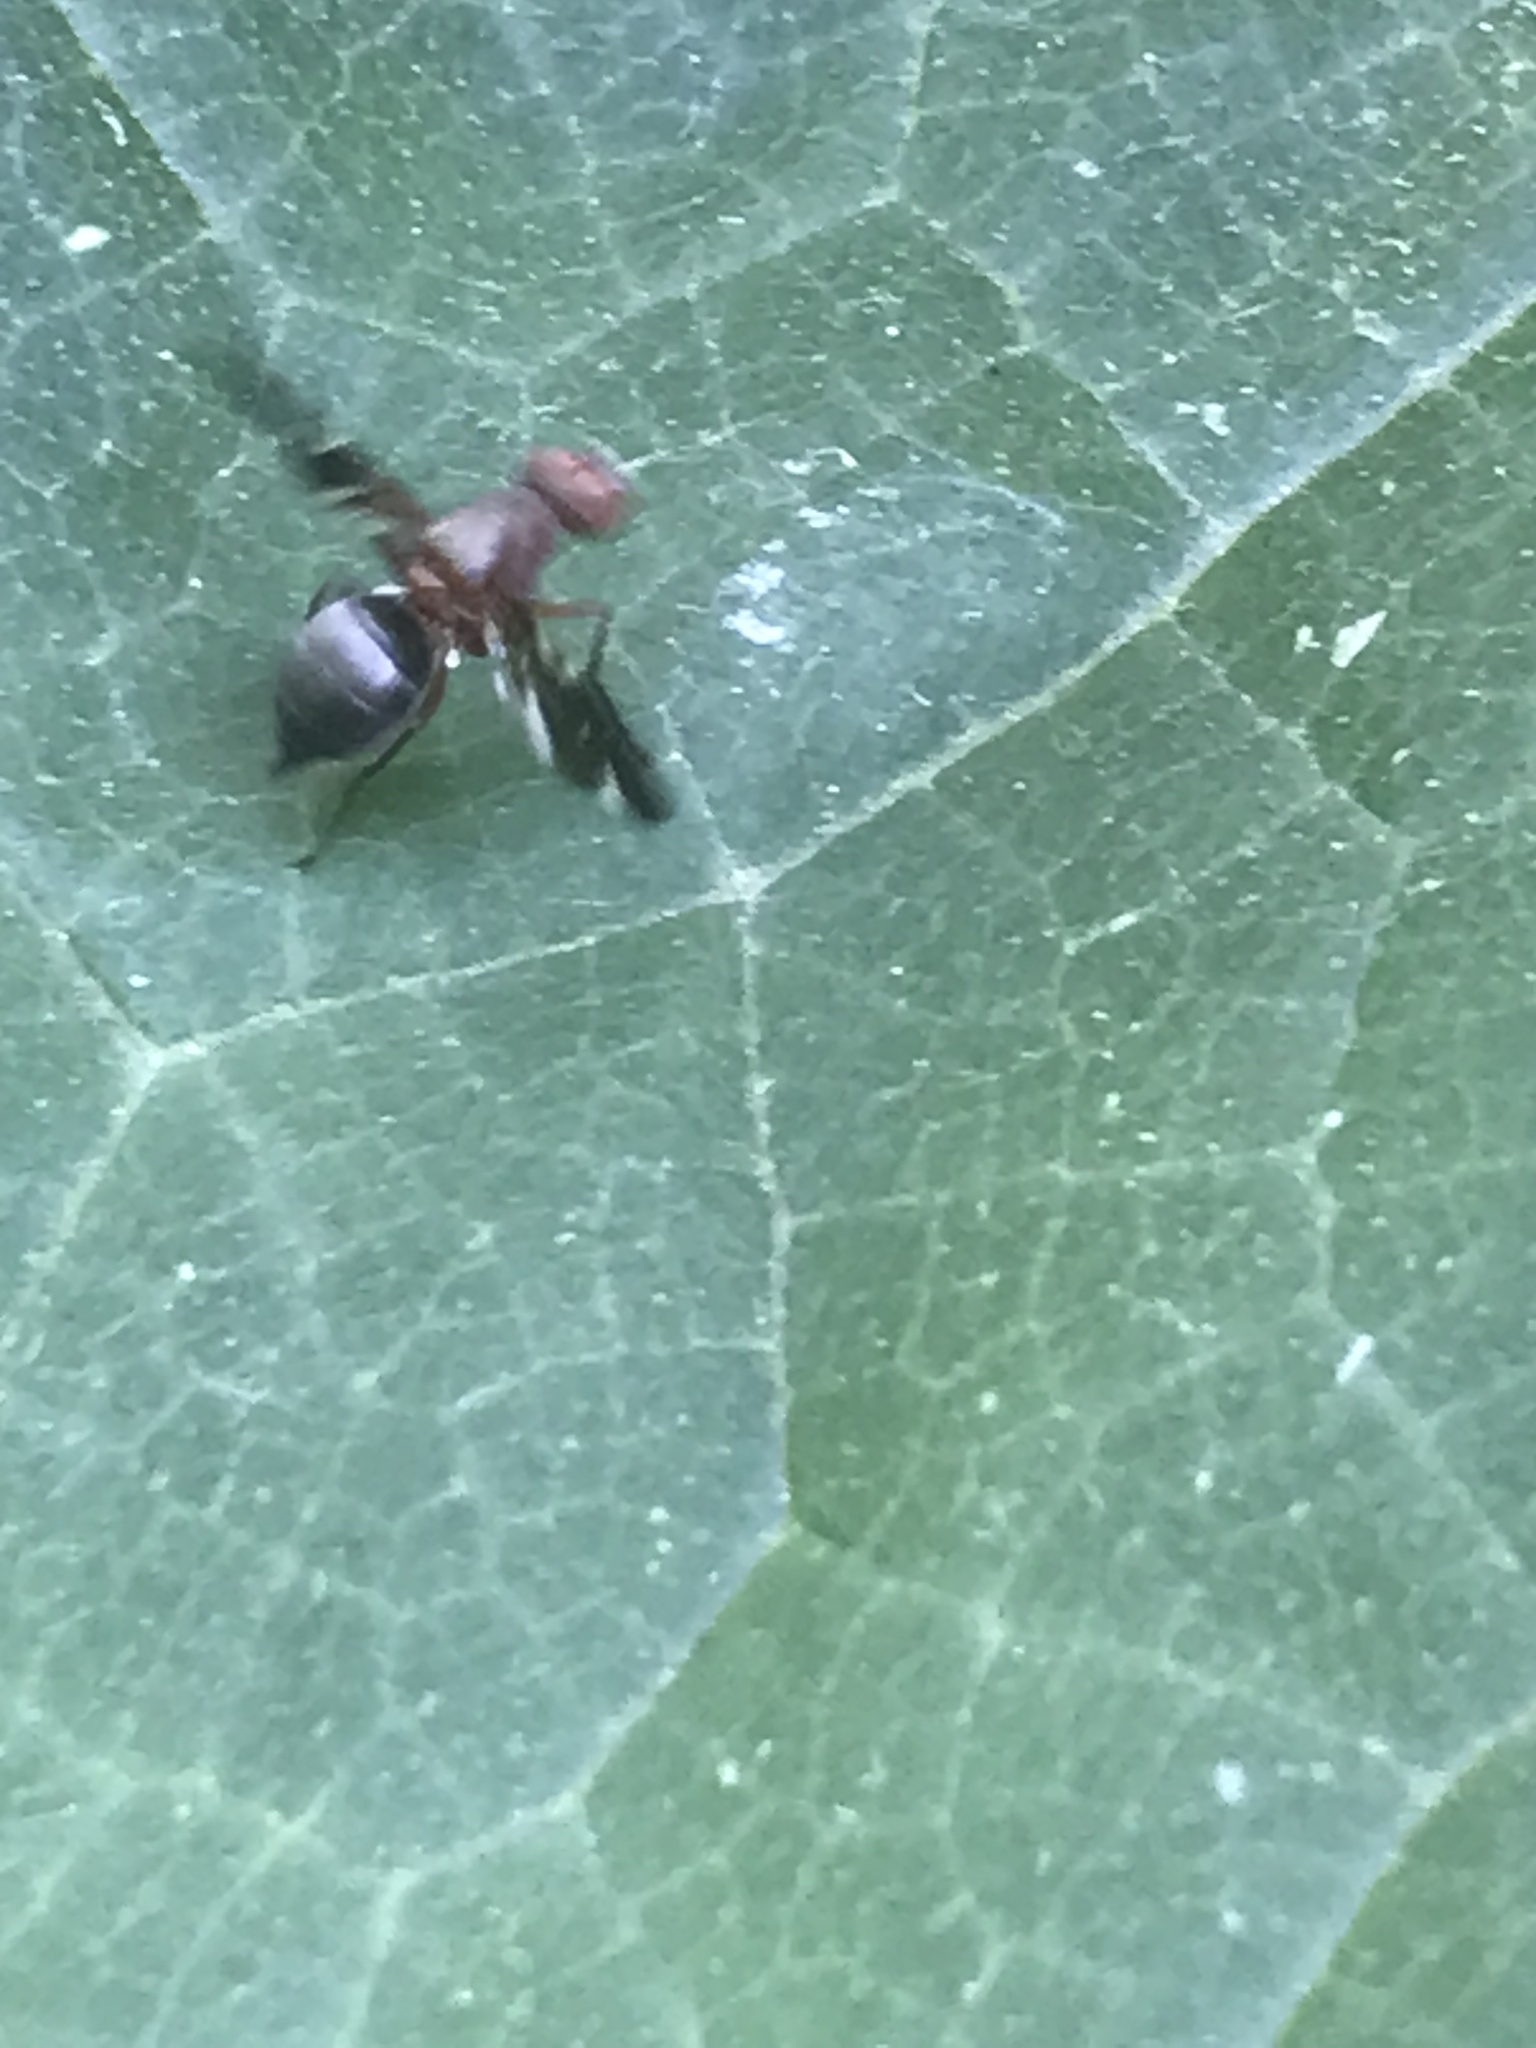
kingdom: Animalia
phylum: Arthropoda
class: Insecta
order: Diptera
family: Ulidiidae
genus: Delphinia
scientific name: Delphinia picta
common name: Common picture-winged fly
